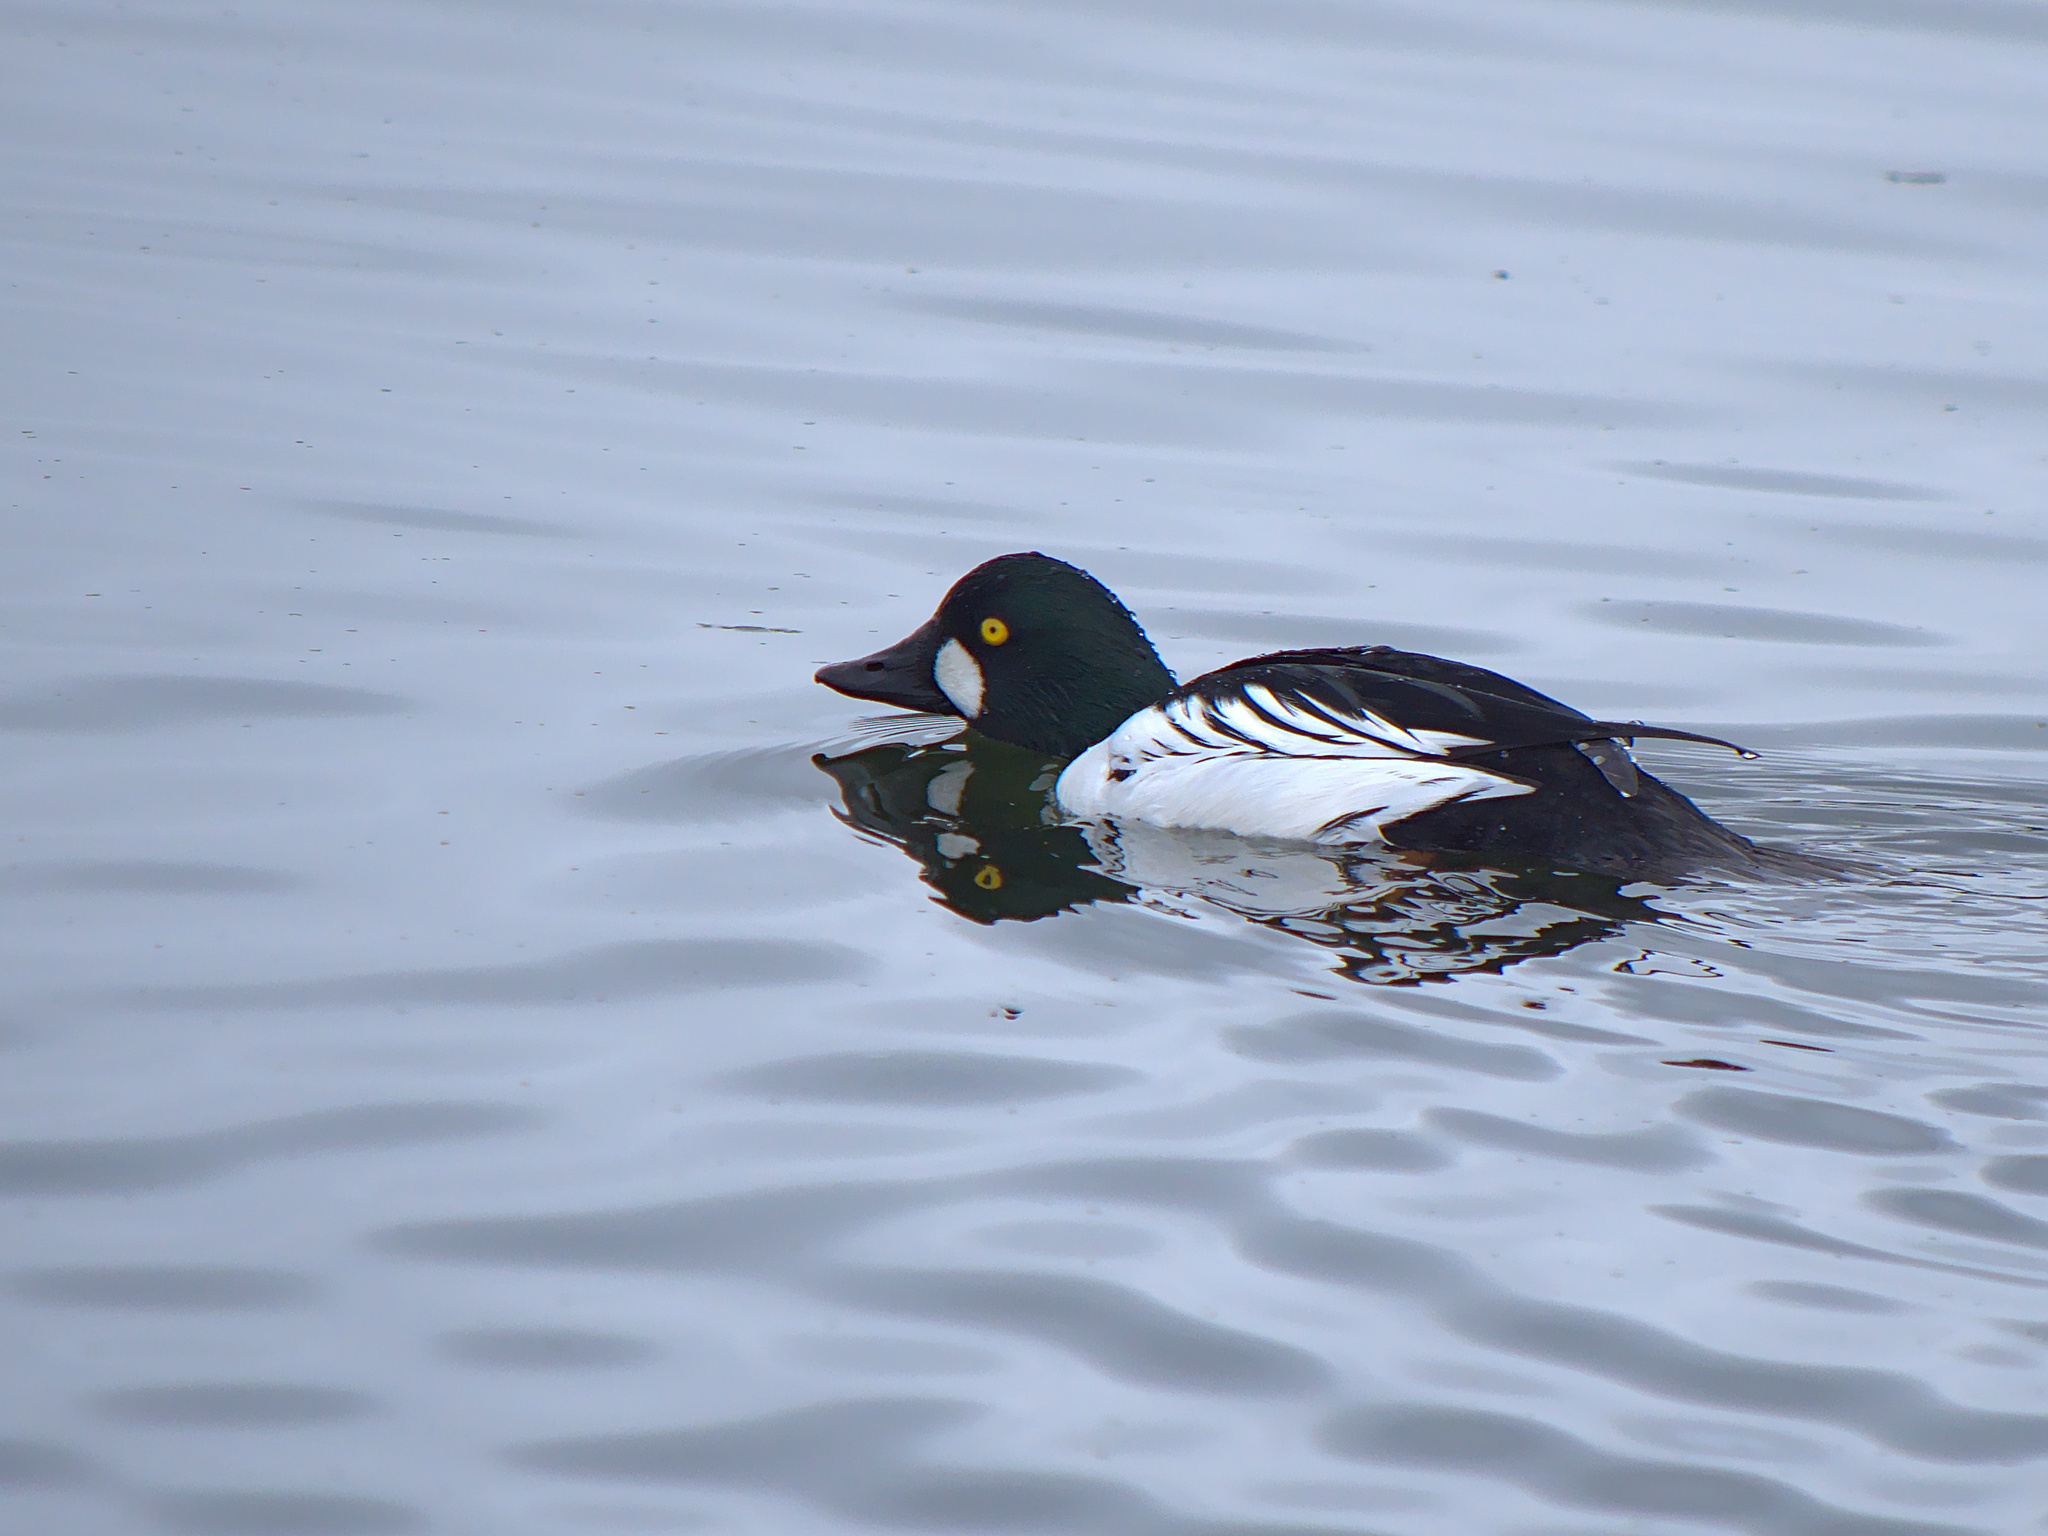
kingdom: Animalia
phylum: Chordata
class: Aves
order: Anseriformes
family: Anatidae
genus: Bucephala
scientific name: Bucephala clangula
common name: Common goldeneye
